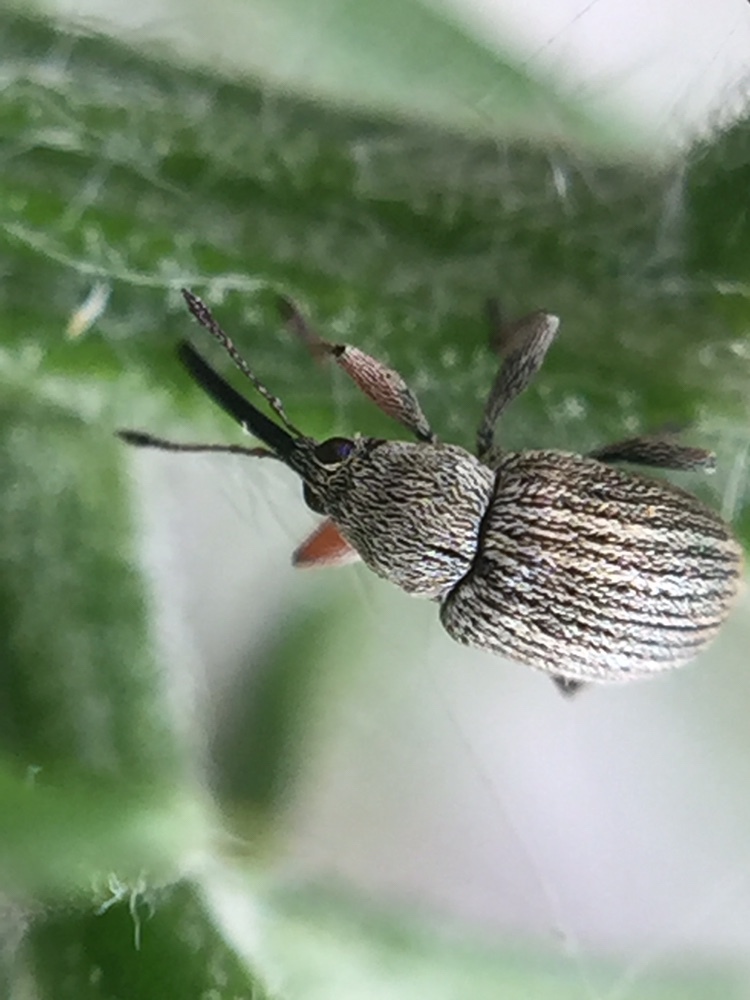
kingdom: Animalia
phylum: Arthropoda
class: Insecta
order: Coleoptera
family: Brentidae
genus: Exapion
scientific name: Exapion ulicis
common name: Gorse seed weevil
